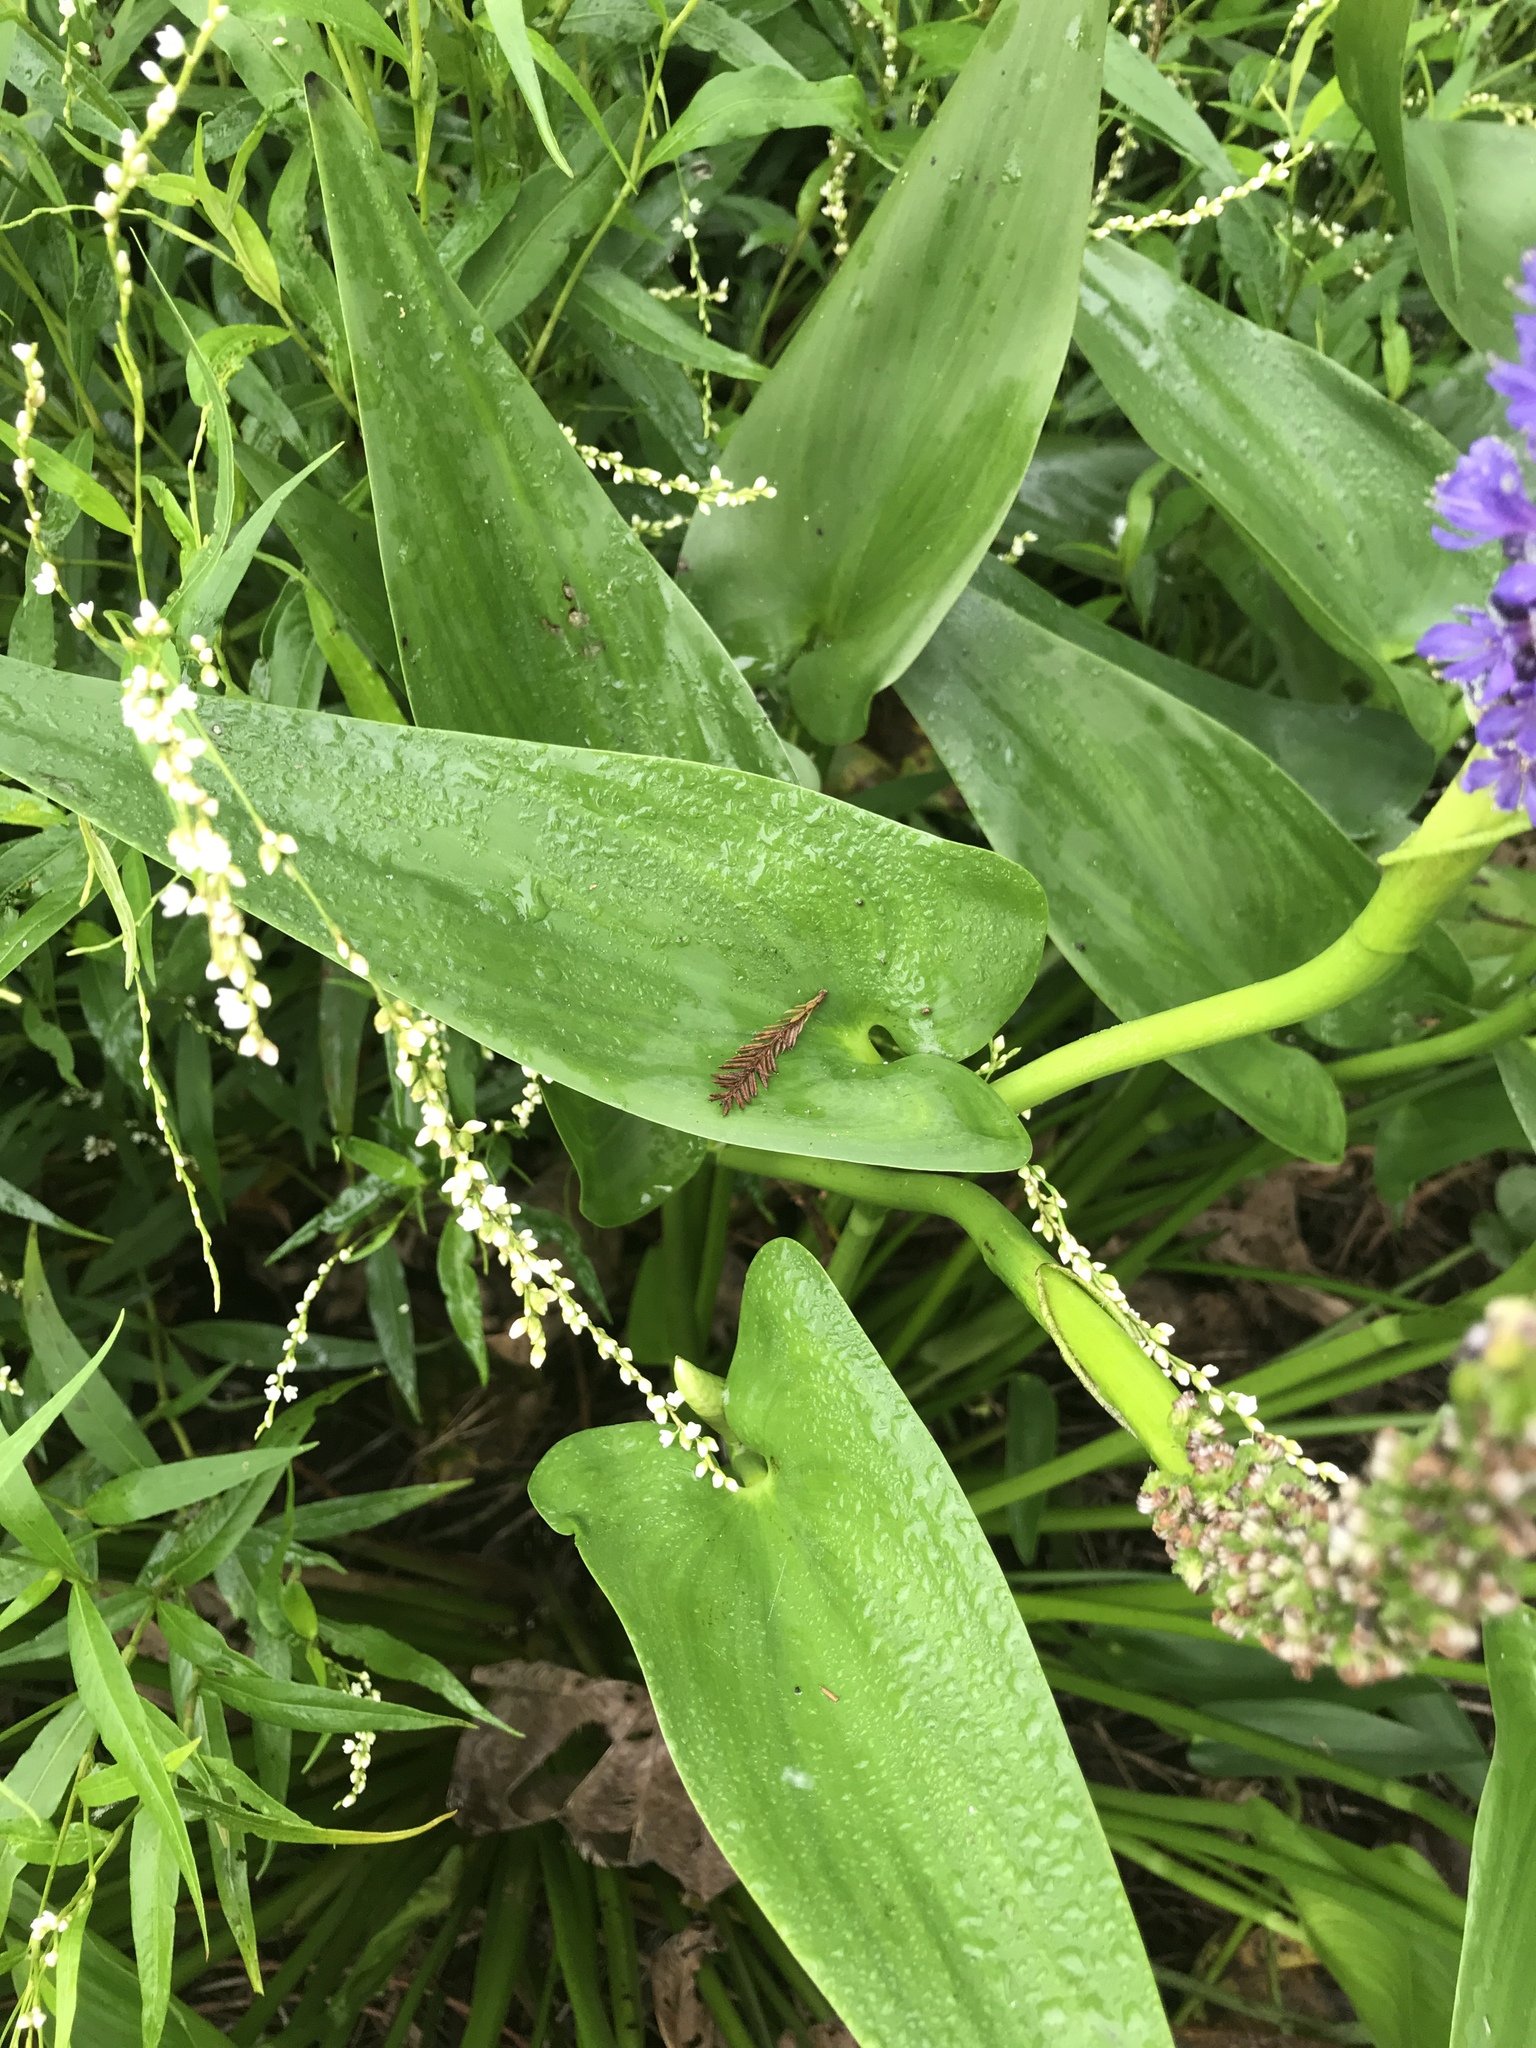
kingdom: Plantae
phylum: Tracheophyta
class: Liliopsida
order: Commelinales
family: Pontederiaceae
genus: Pontederia
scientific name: Pontederia cordata
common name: Pickerelweed
